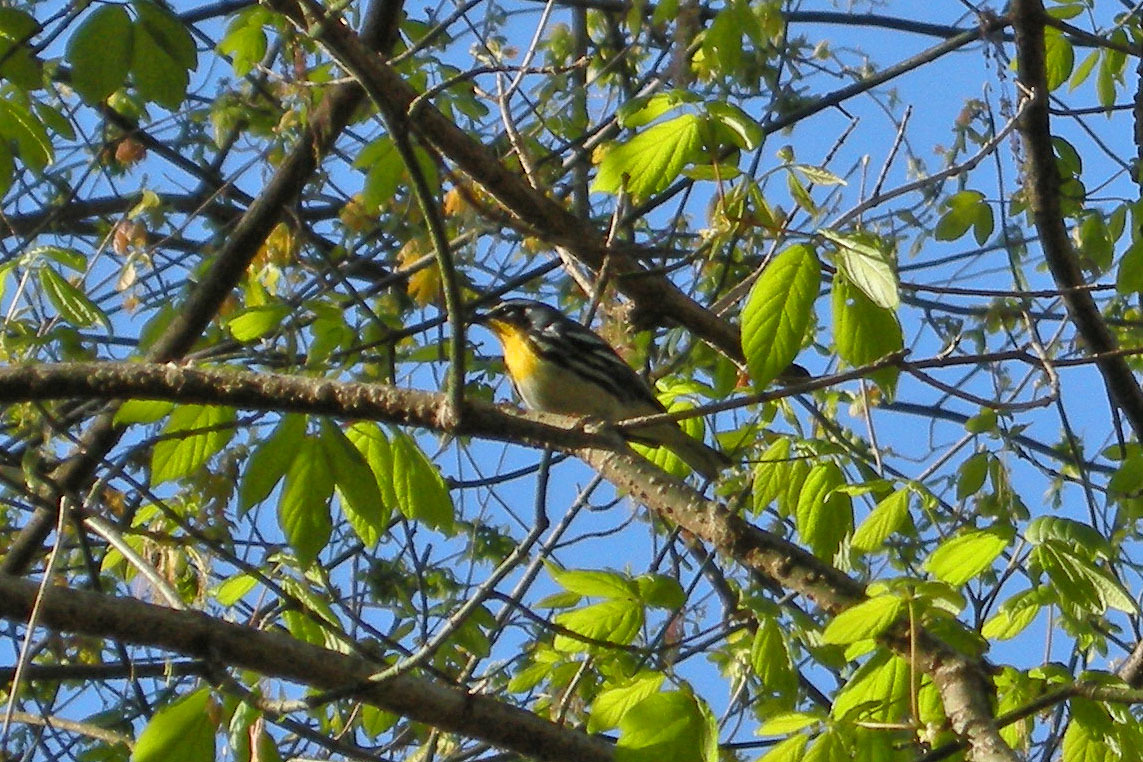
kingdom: Animalia
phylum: Chordata
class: Aves
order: Passeriformes
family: Parulidae
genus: Setophaga
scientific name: Setophaga dominica
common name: Yellow-throated warbler
